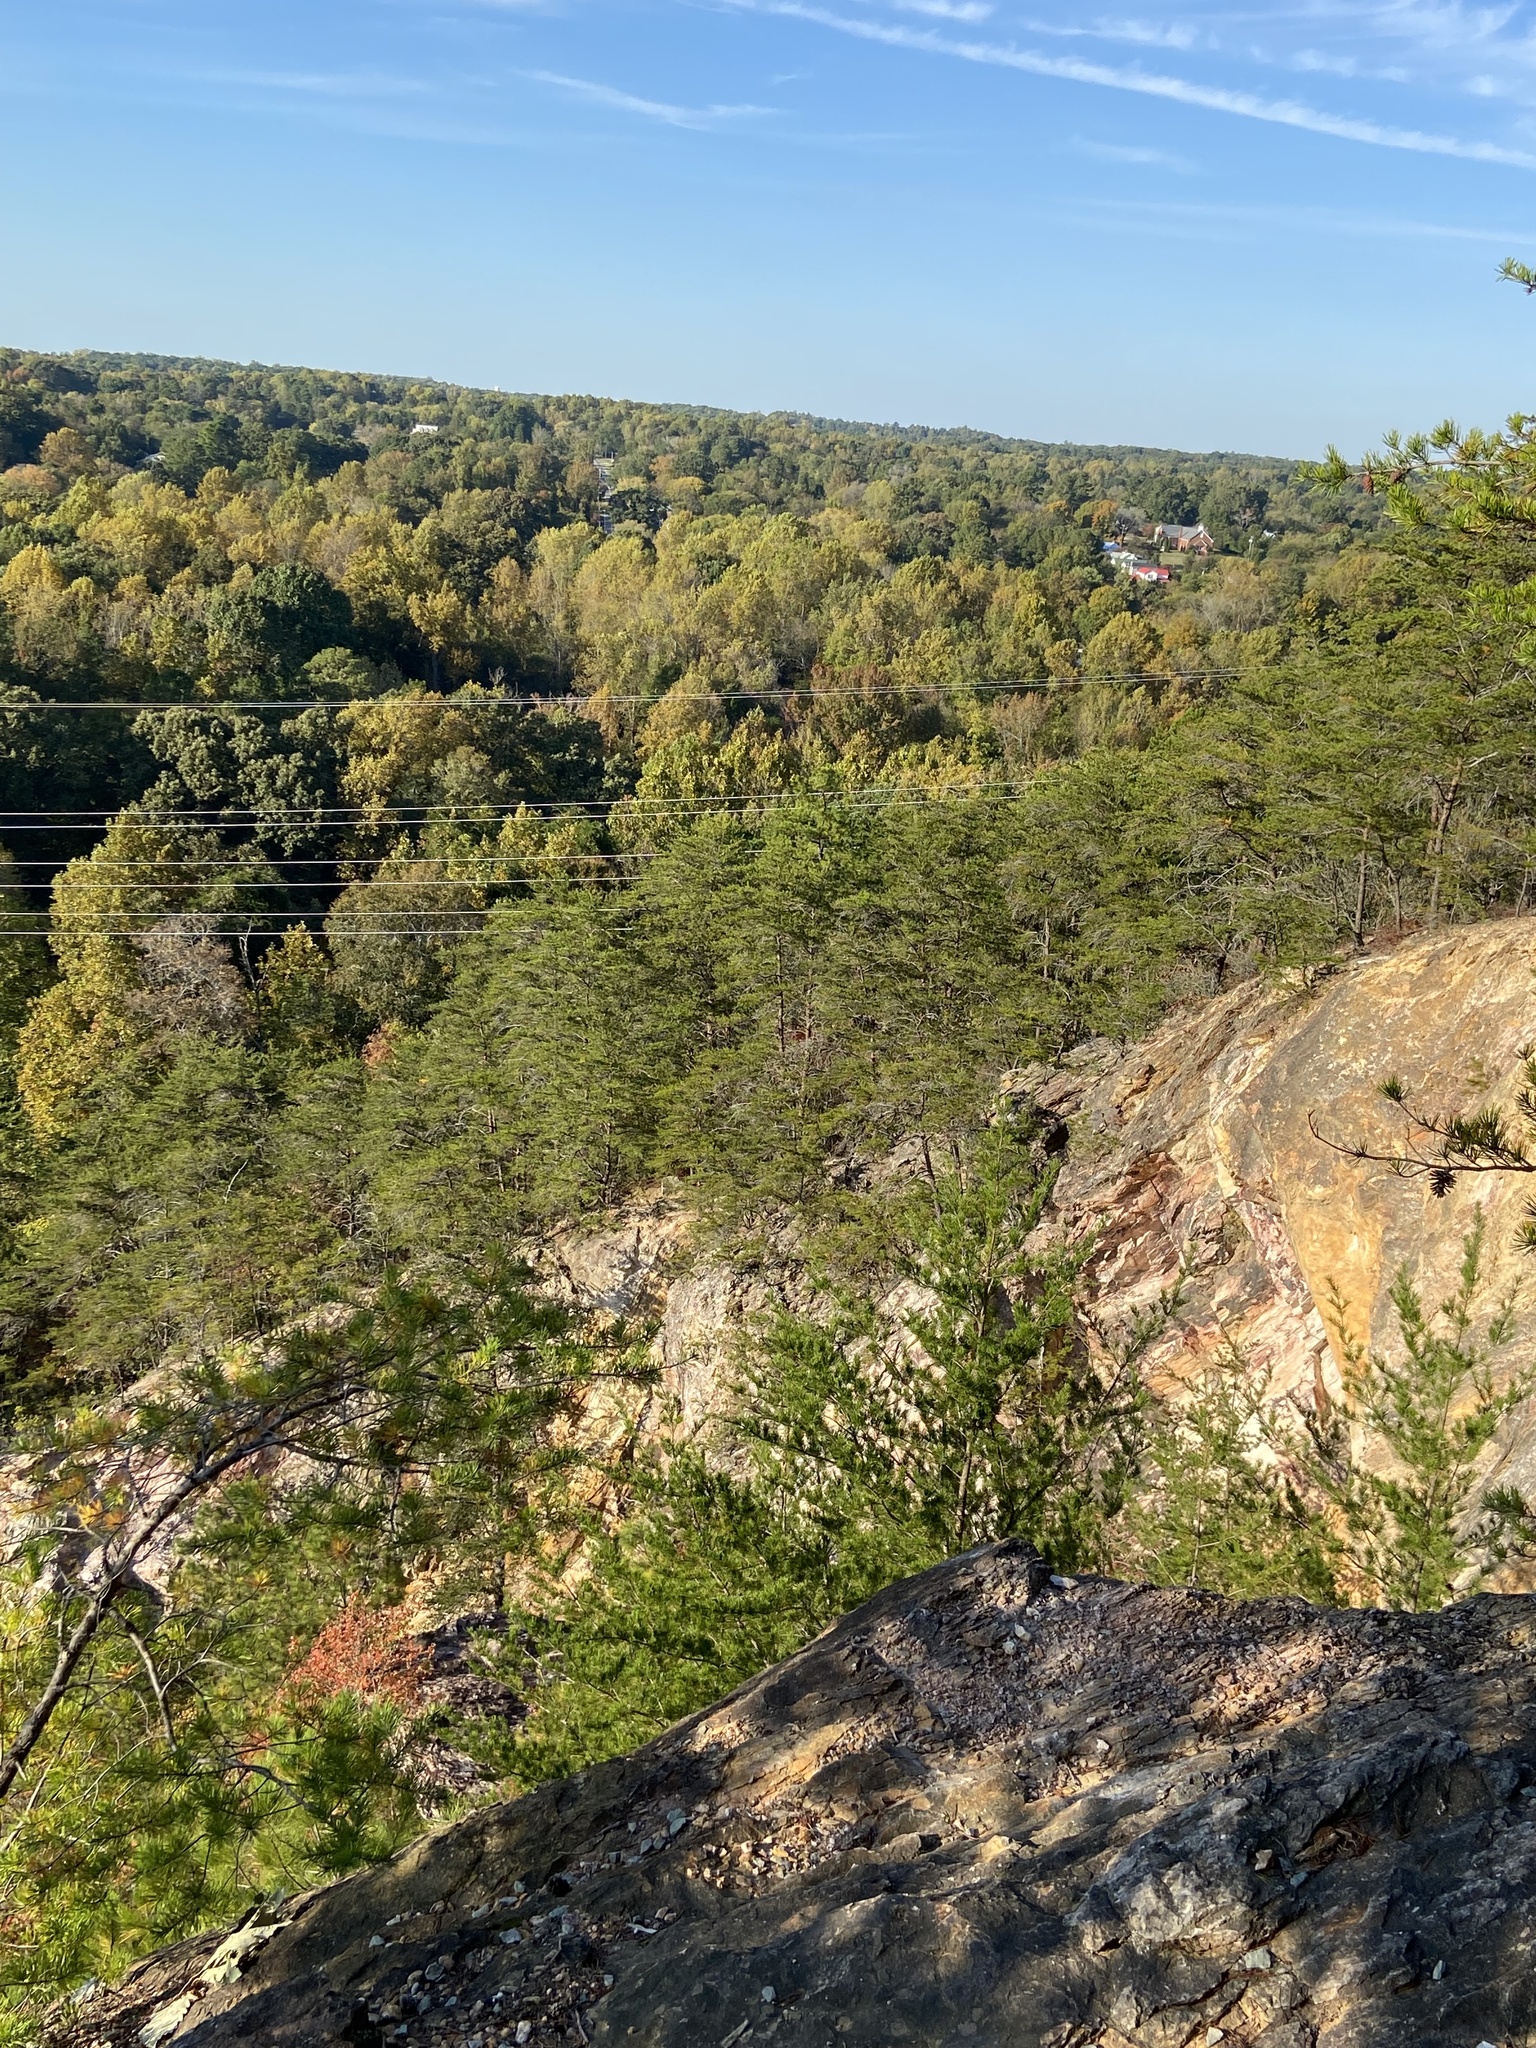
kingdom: Plantae
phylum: Tracheophyta
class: Pinopsida
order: Pinales
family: Pinaceae
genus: Pinus
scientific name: Pinus virginiana
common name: Scrub pine
